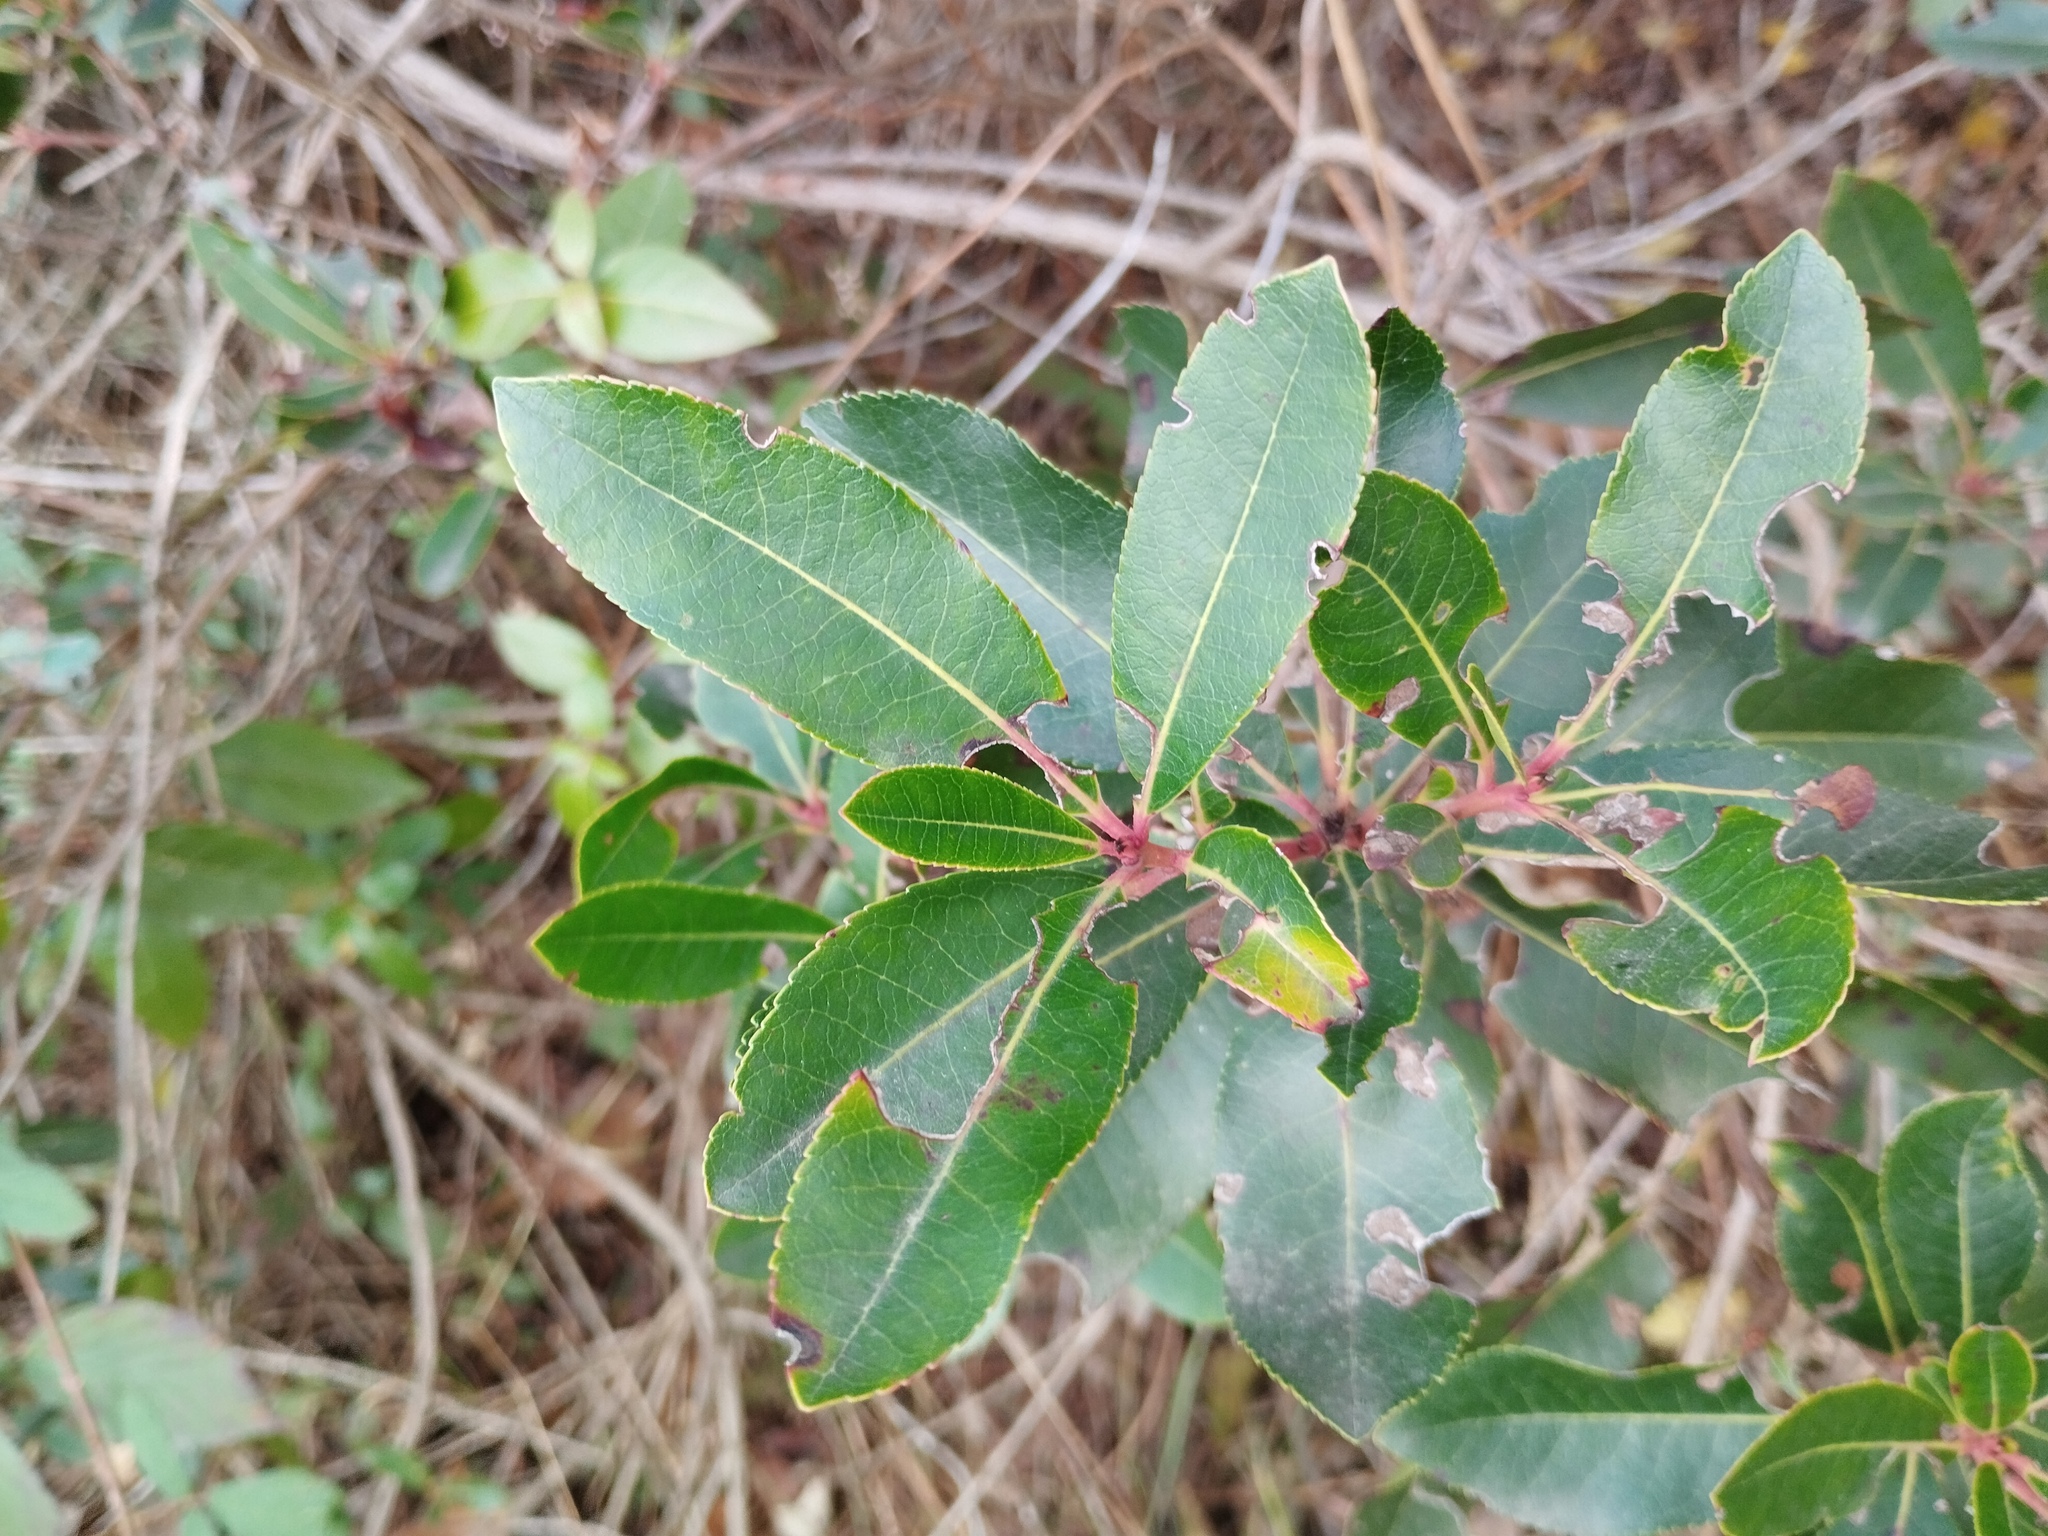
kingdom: Plantae
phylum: Tracheophyta
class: Magnoliopsida
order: Ericales
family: Ericaceae
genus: Arbutus
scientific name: Arbutus unedo
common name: Strawberry-tree
